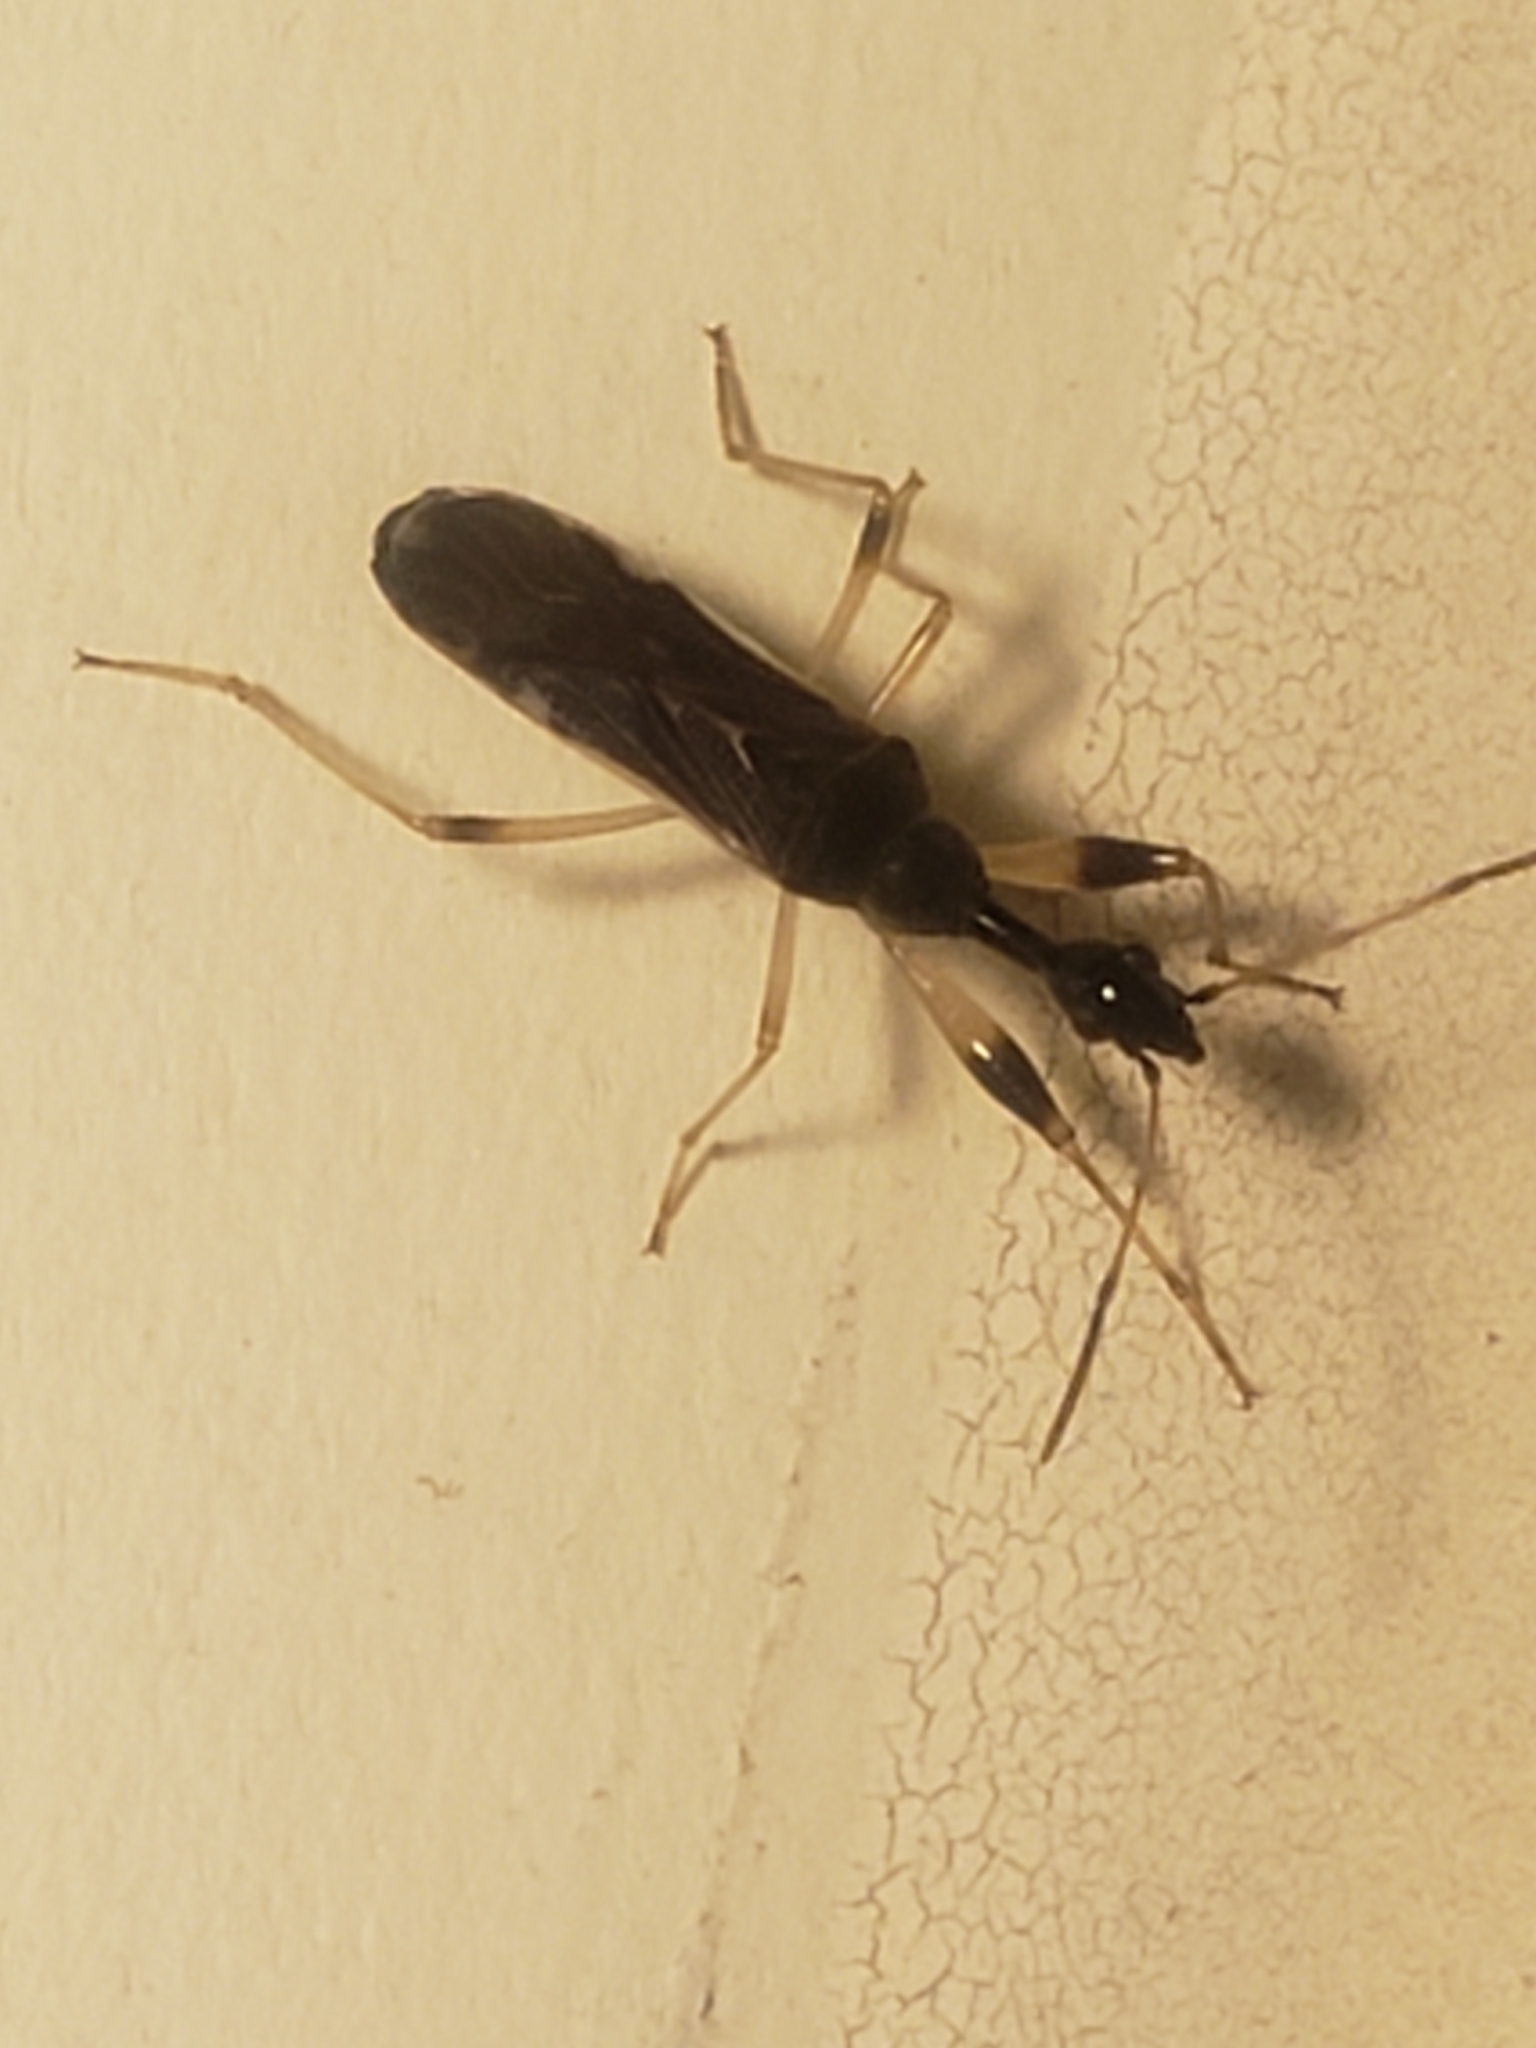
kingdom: Animalia
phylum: Arthropoda
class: Insecta
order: Hemiptera
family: Rhyparochromidae
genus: Myodocha
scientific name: Myodocha serripes
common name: Long-necked seed bug
